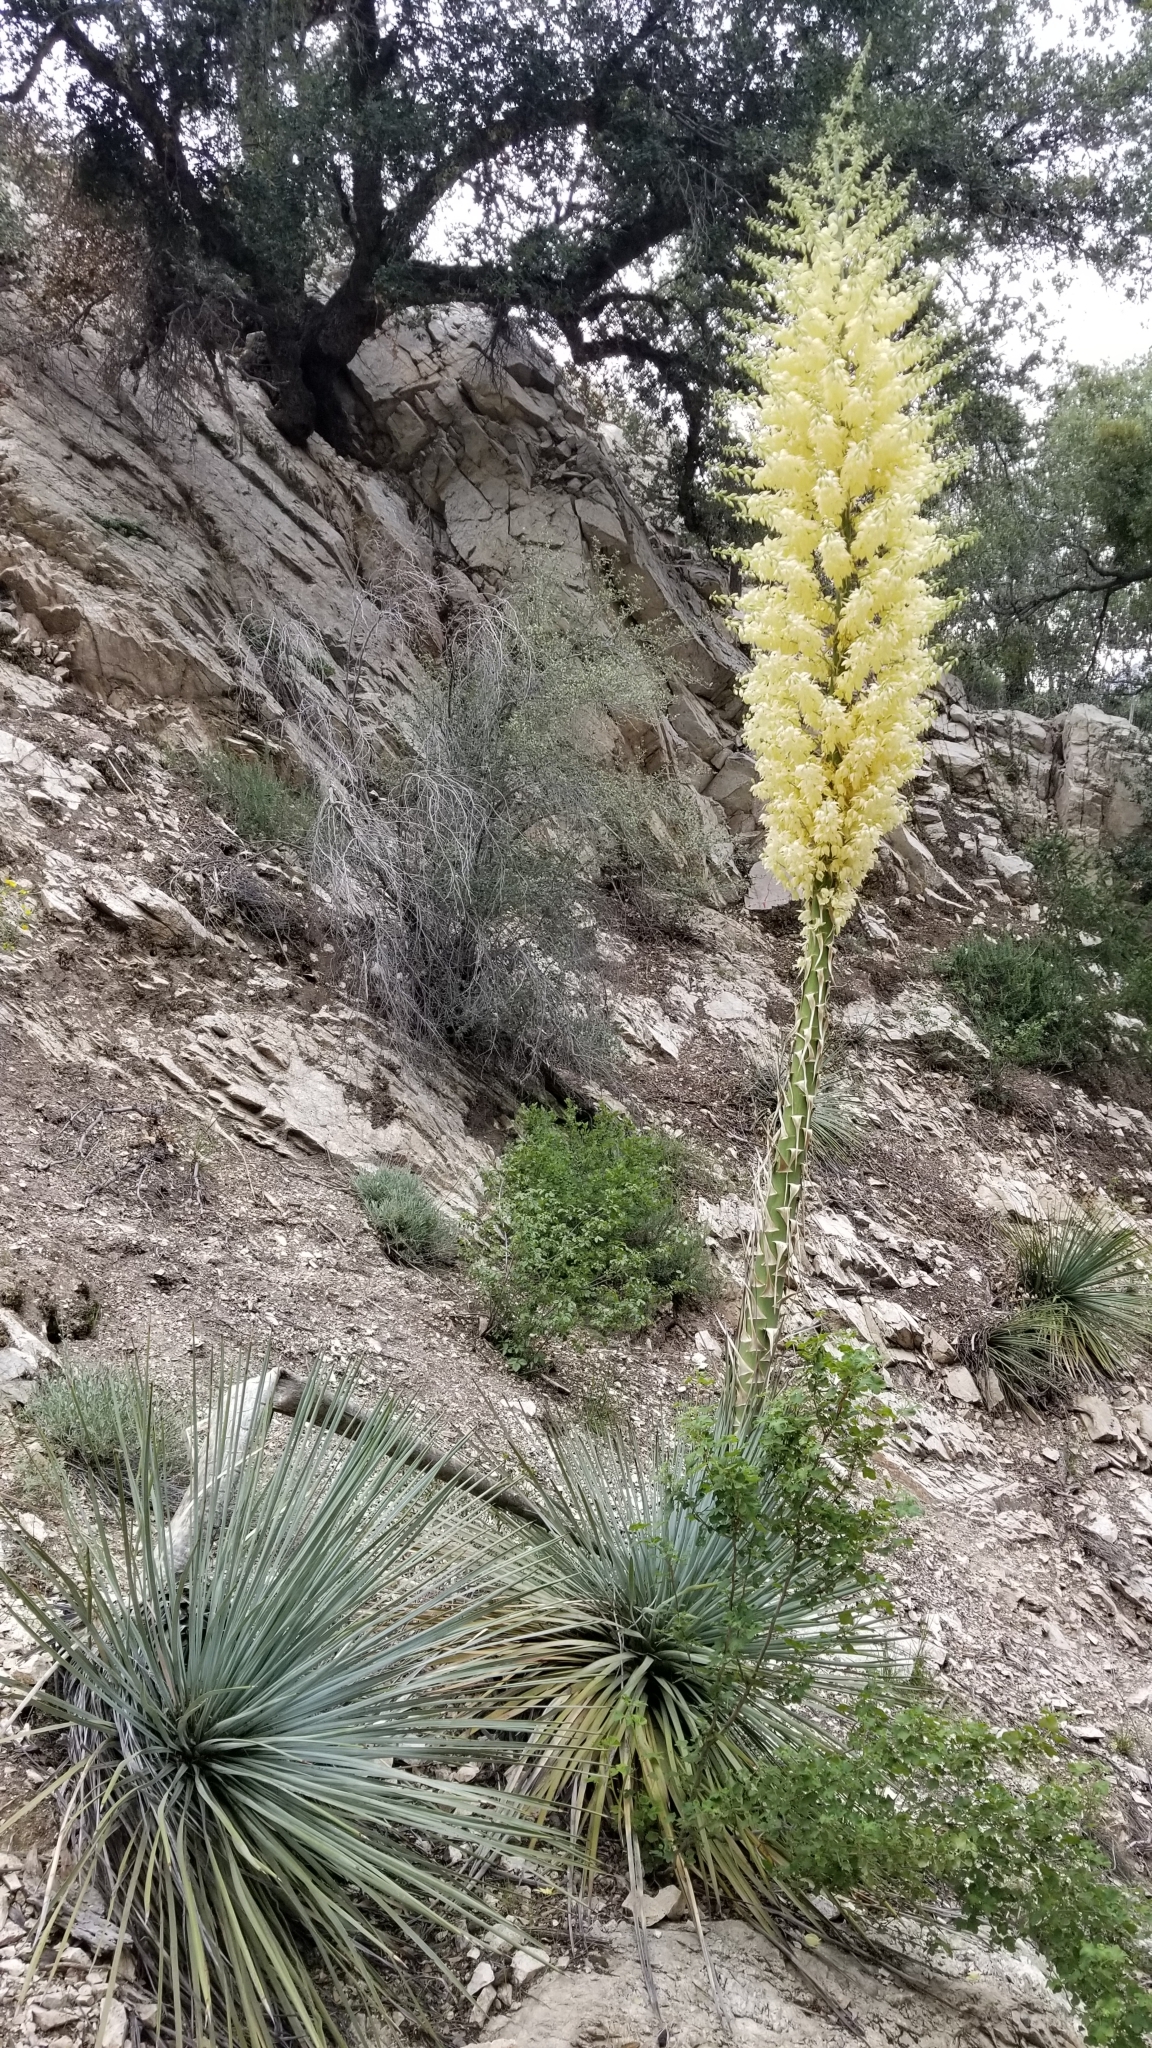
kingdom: Plantae
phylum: Tracheophyta
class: Liliopsida
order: Asparagales
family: Asparagaceae
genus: Hesperoyucca
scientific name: Hesperoyucca whipplei
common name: Our lord's-candle
